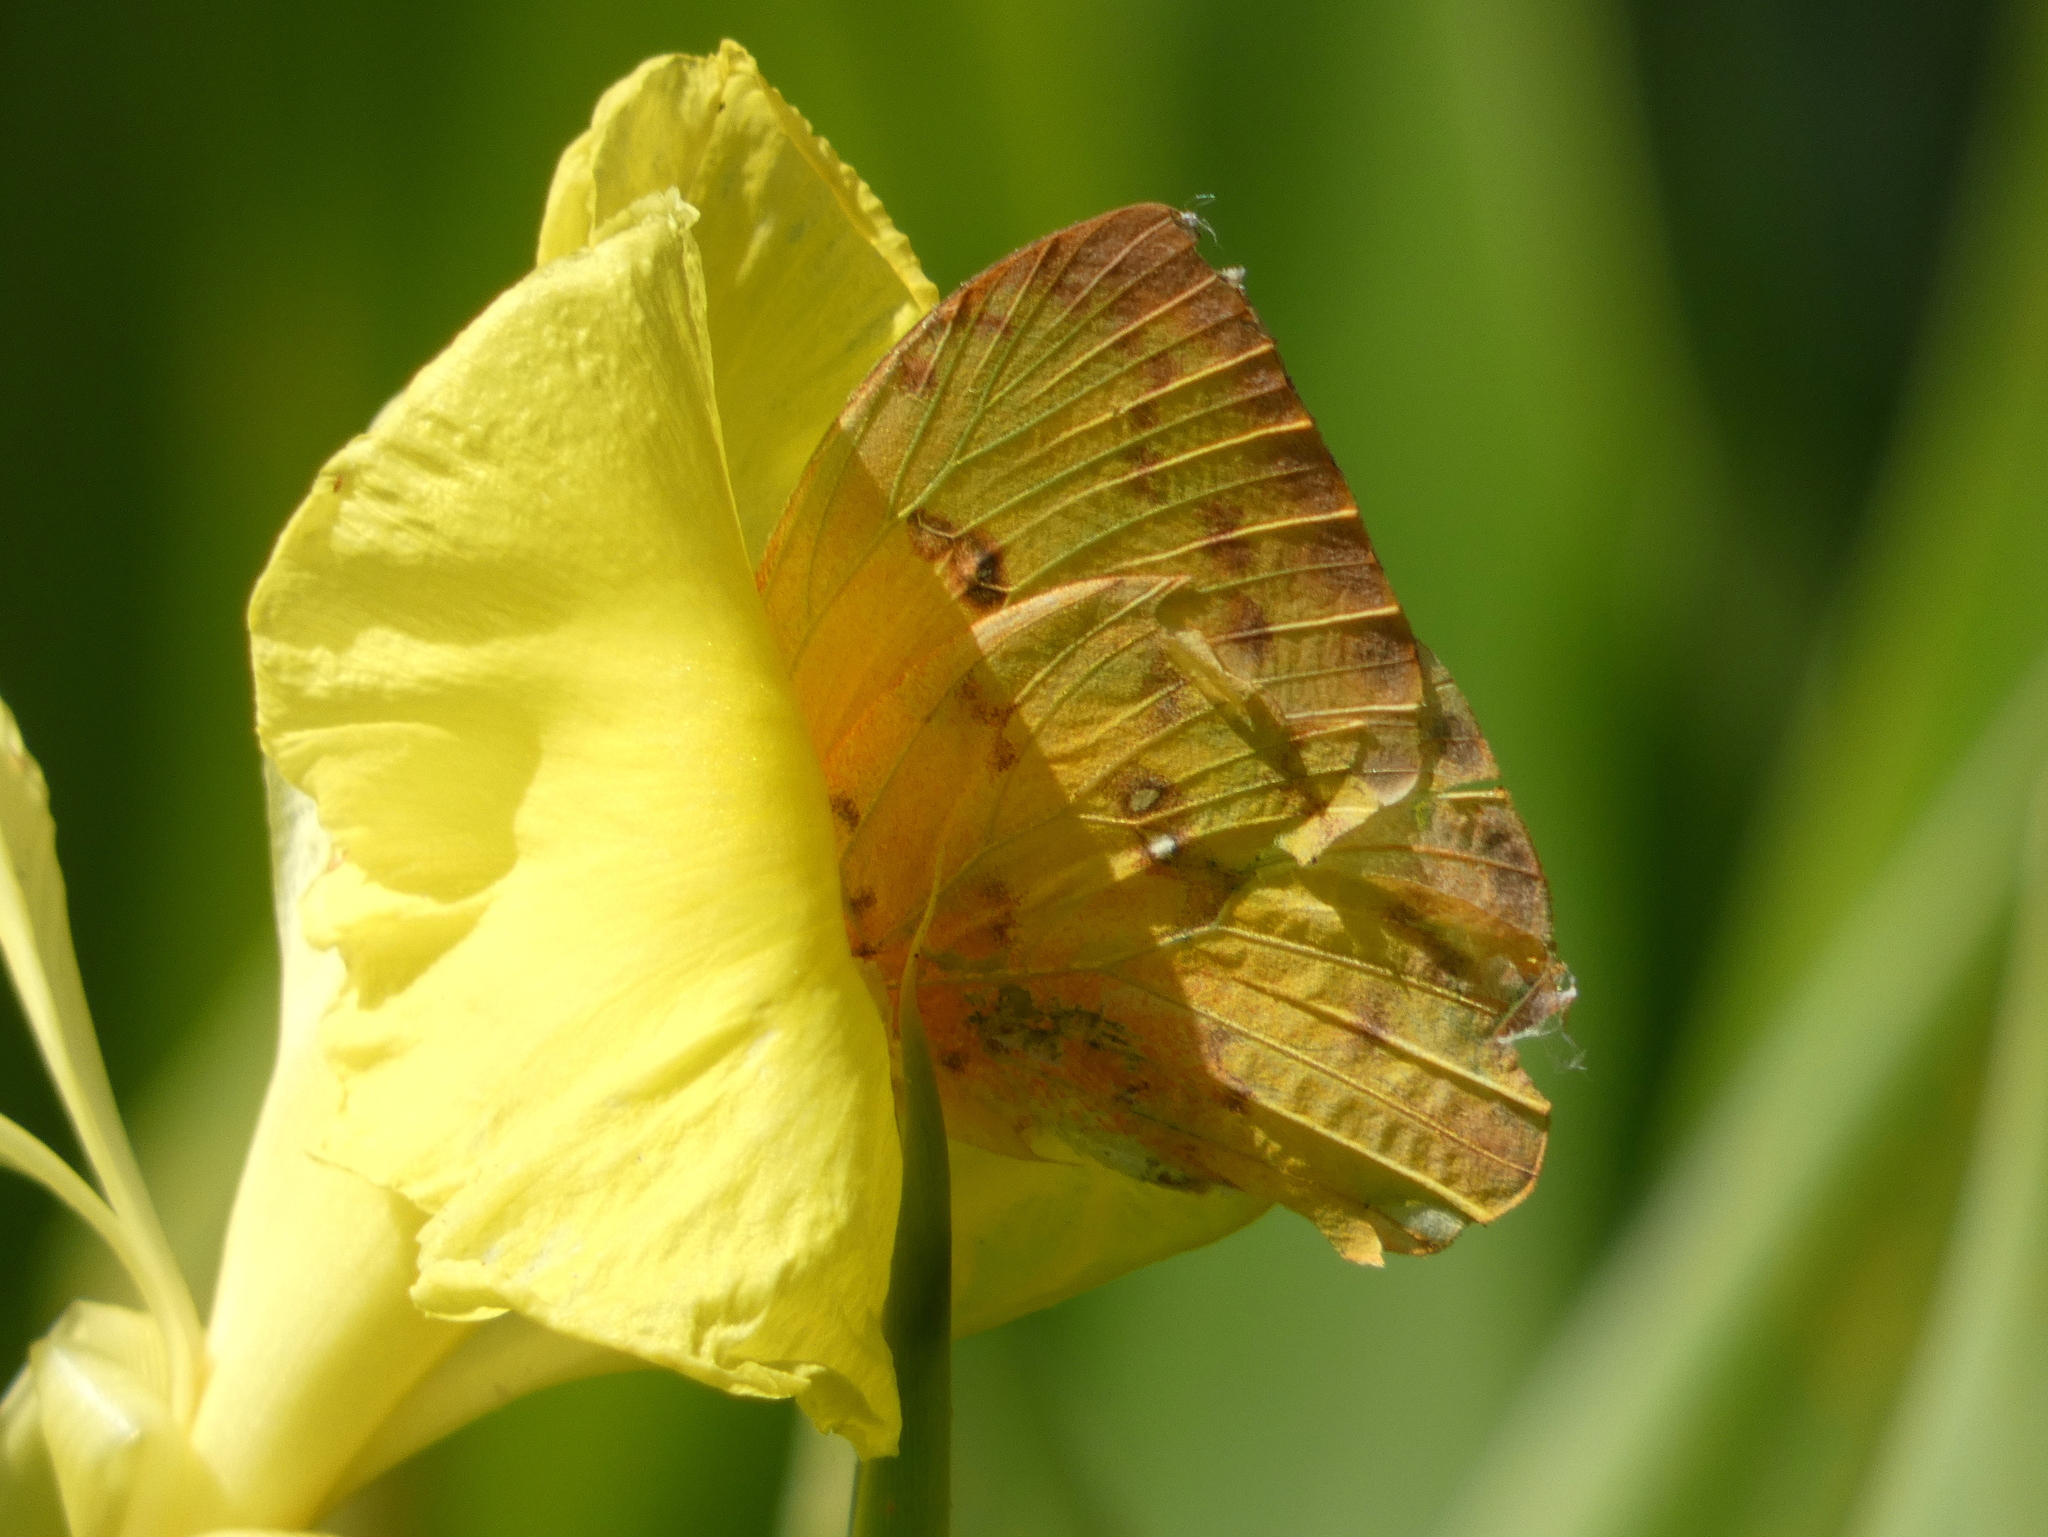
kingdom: Animalia
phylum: Arthropoda
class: Insecta
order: Lepidoptera
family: Pieridae
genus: Phoebis
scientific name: Phoebis philea
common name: Orange-barred giant sulphur
